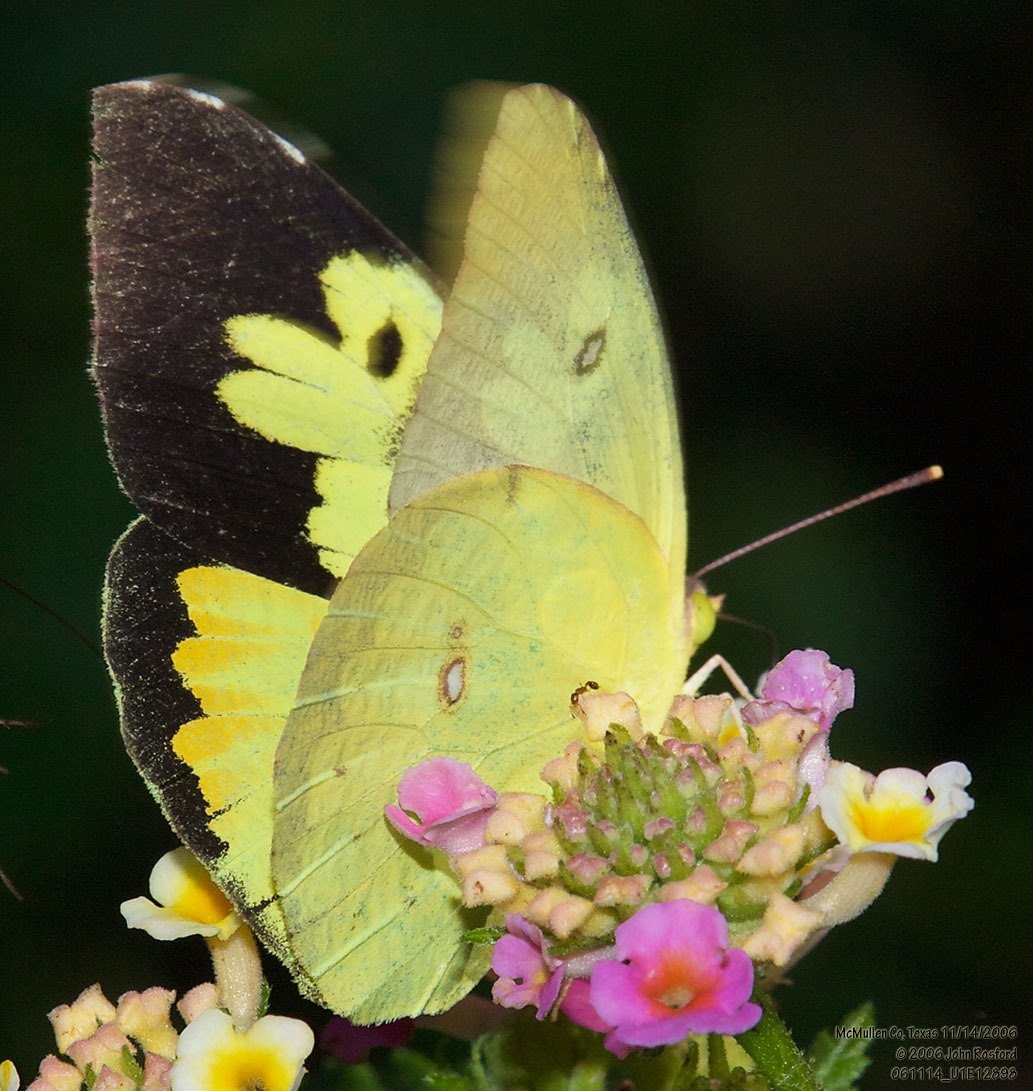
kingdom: Animalia
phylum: Arthropoda
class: Insecta
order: Lepidoptera
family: Pieridae
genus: Zerene
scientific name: Zerene cesonia
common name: Southern dogface
